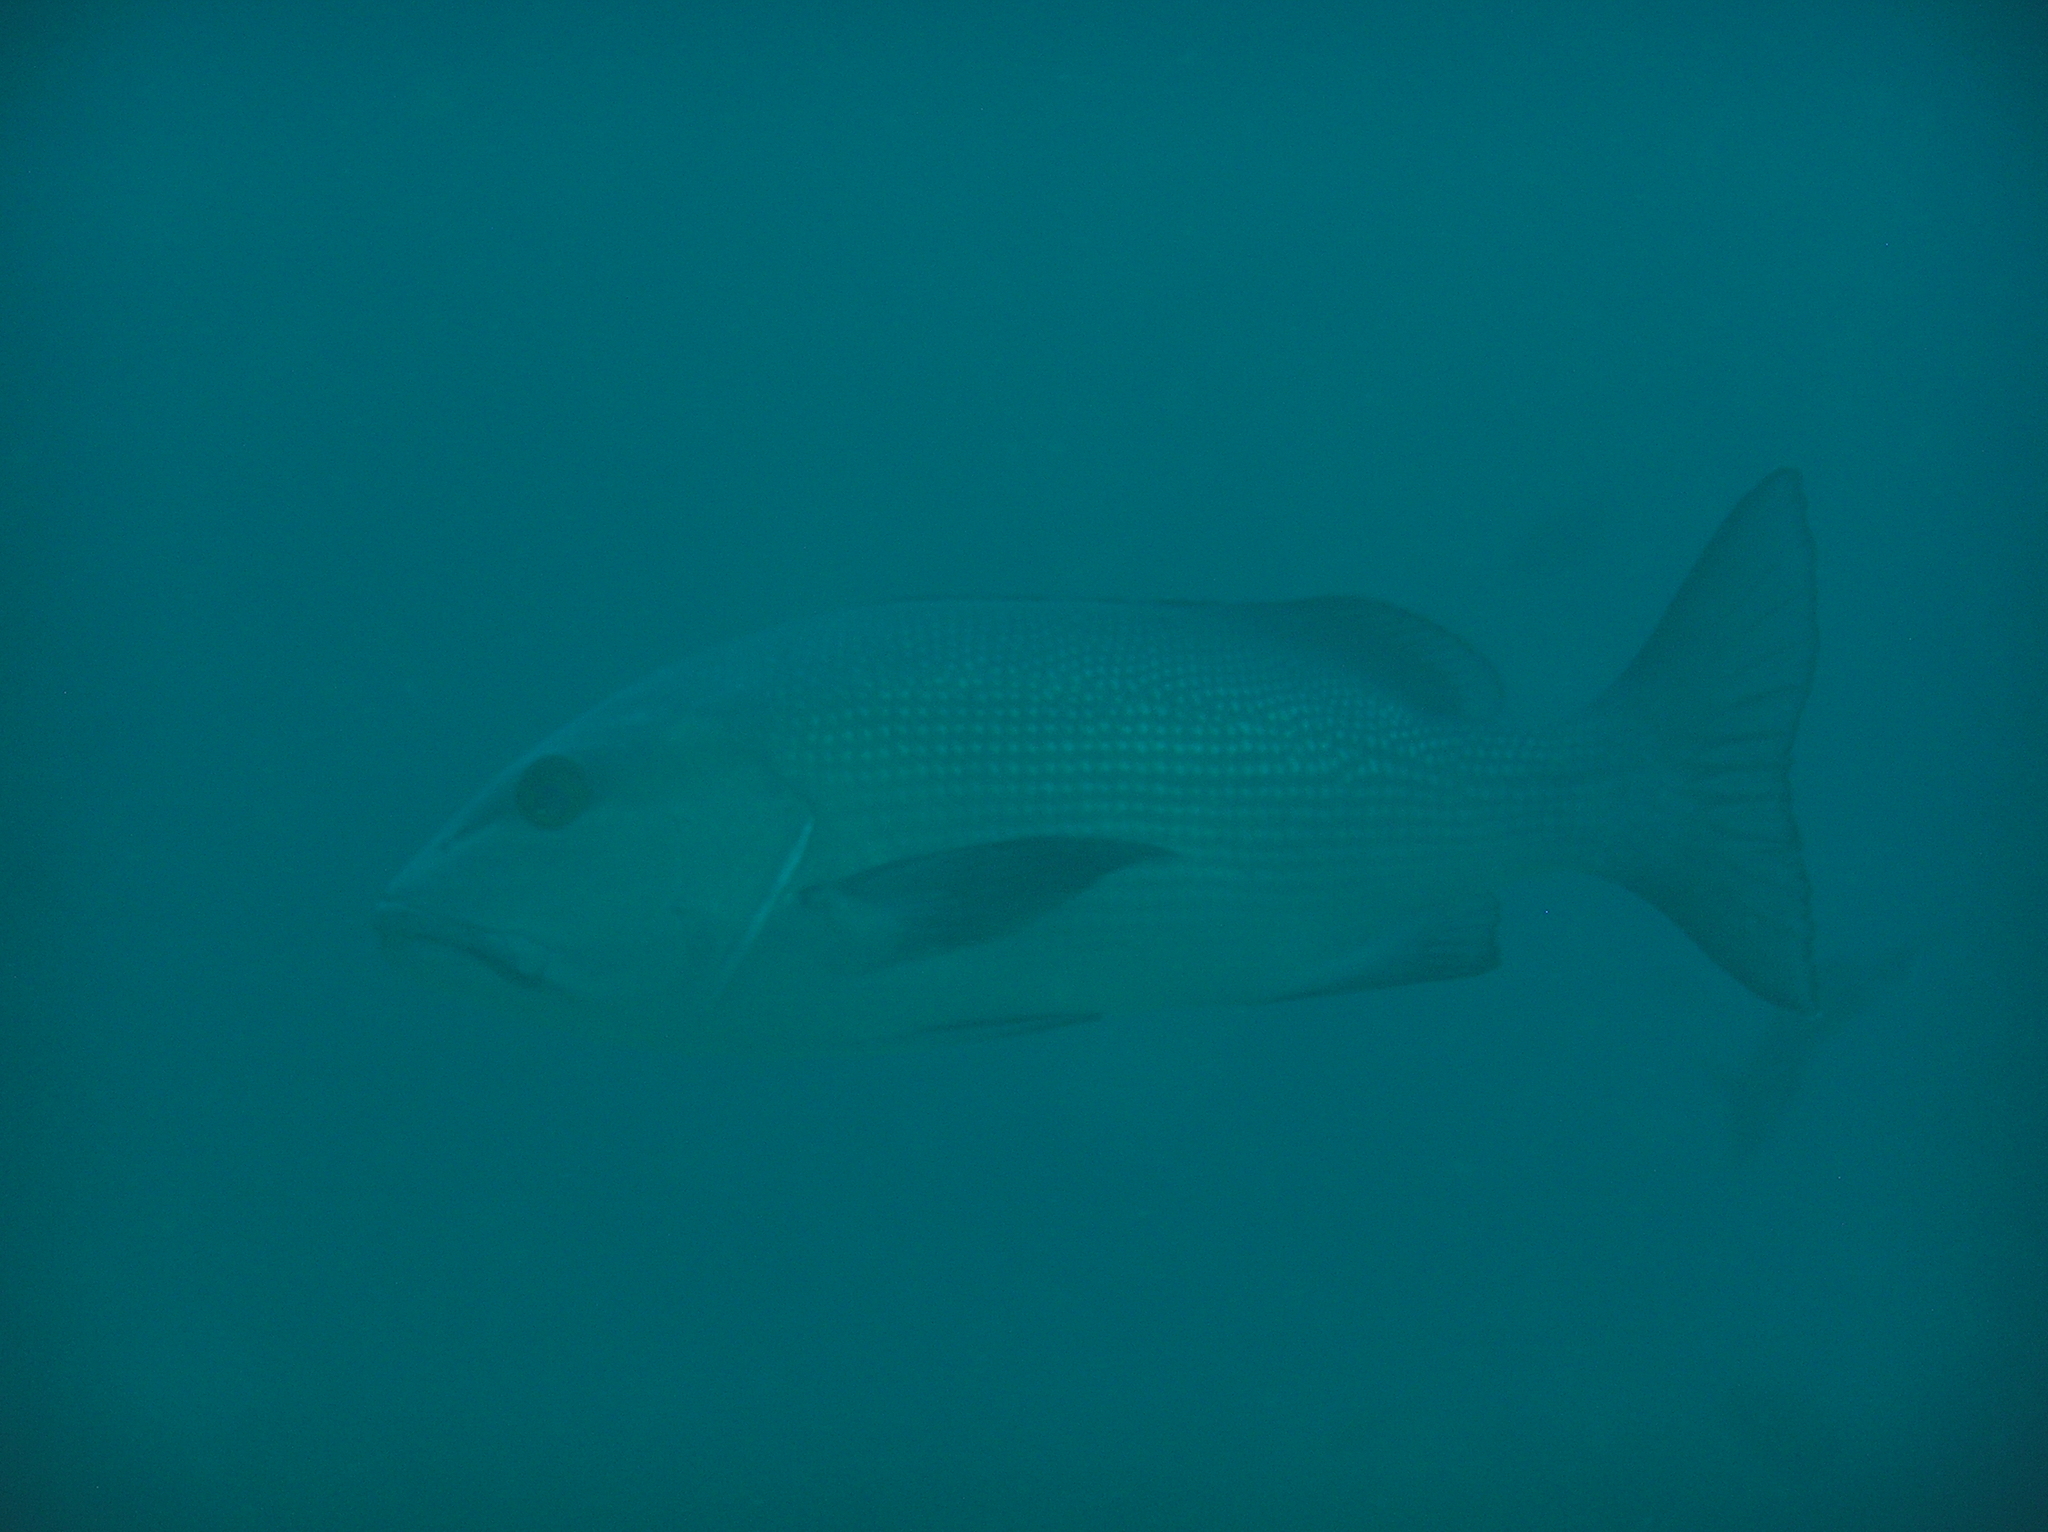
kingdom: Animalia
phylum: Chordata
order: Perciformes
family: Lutjanidae
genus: Lutjanus
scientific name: Lutjanus bohar
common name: Red bass
